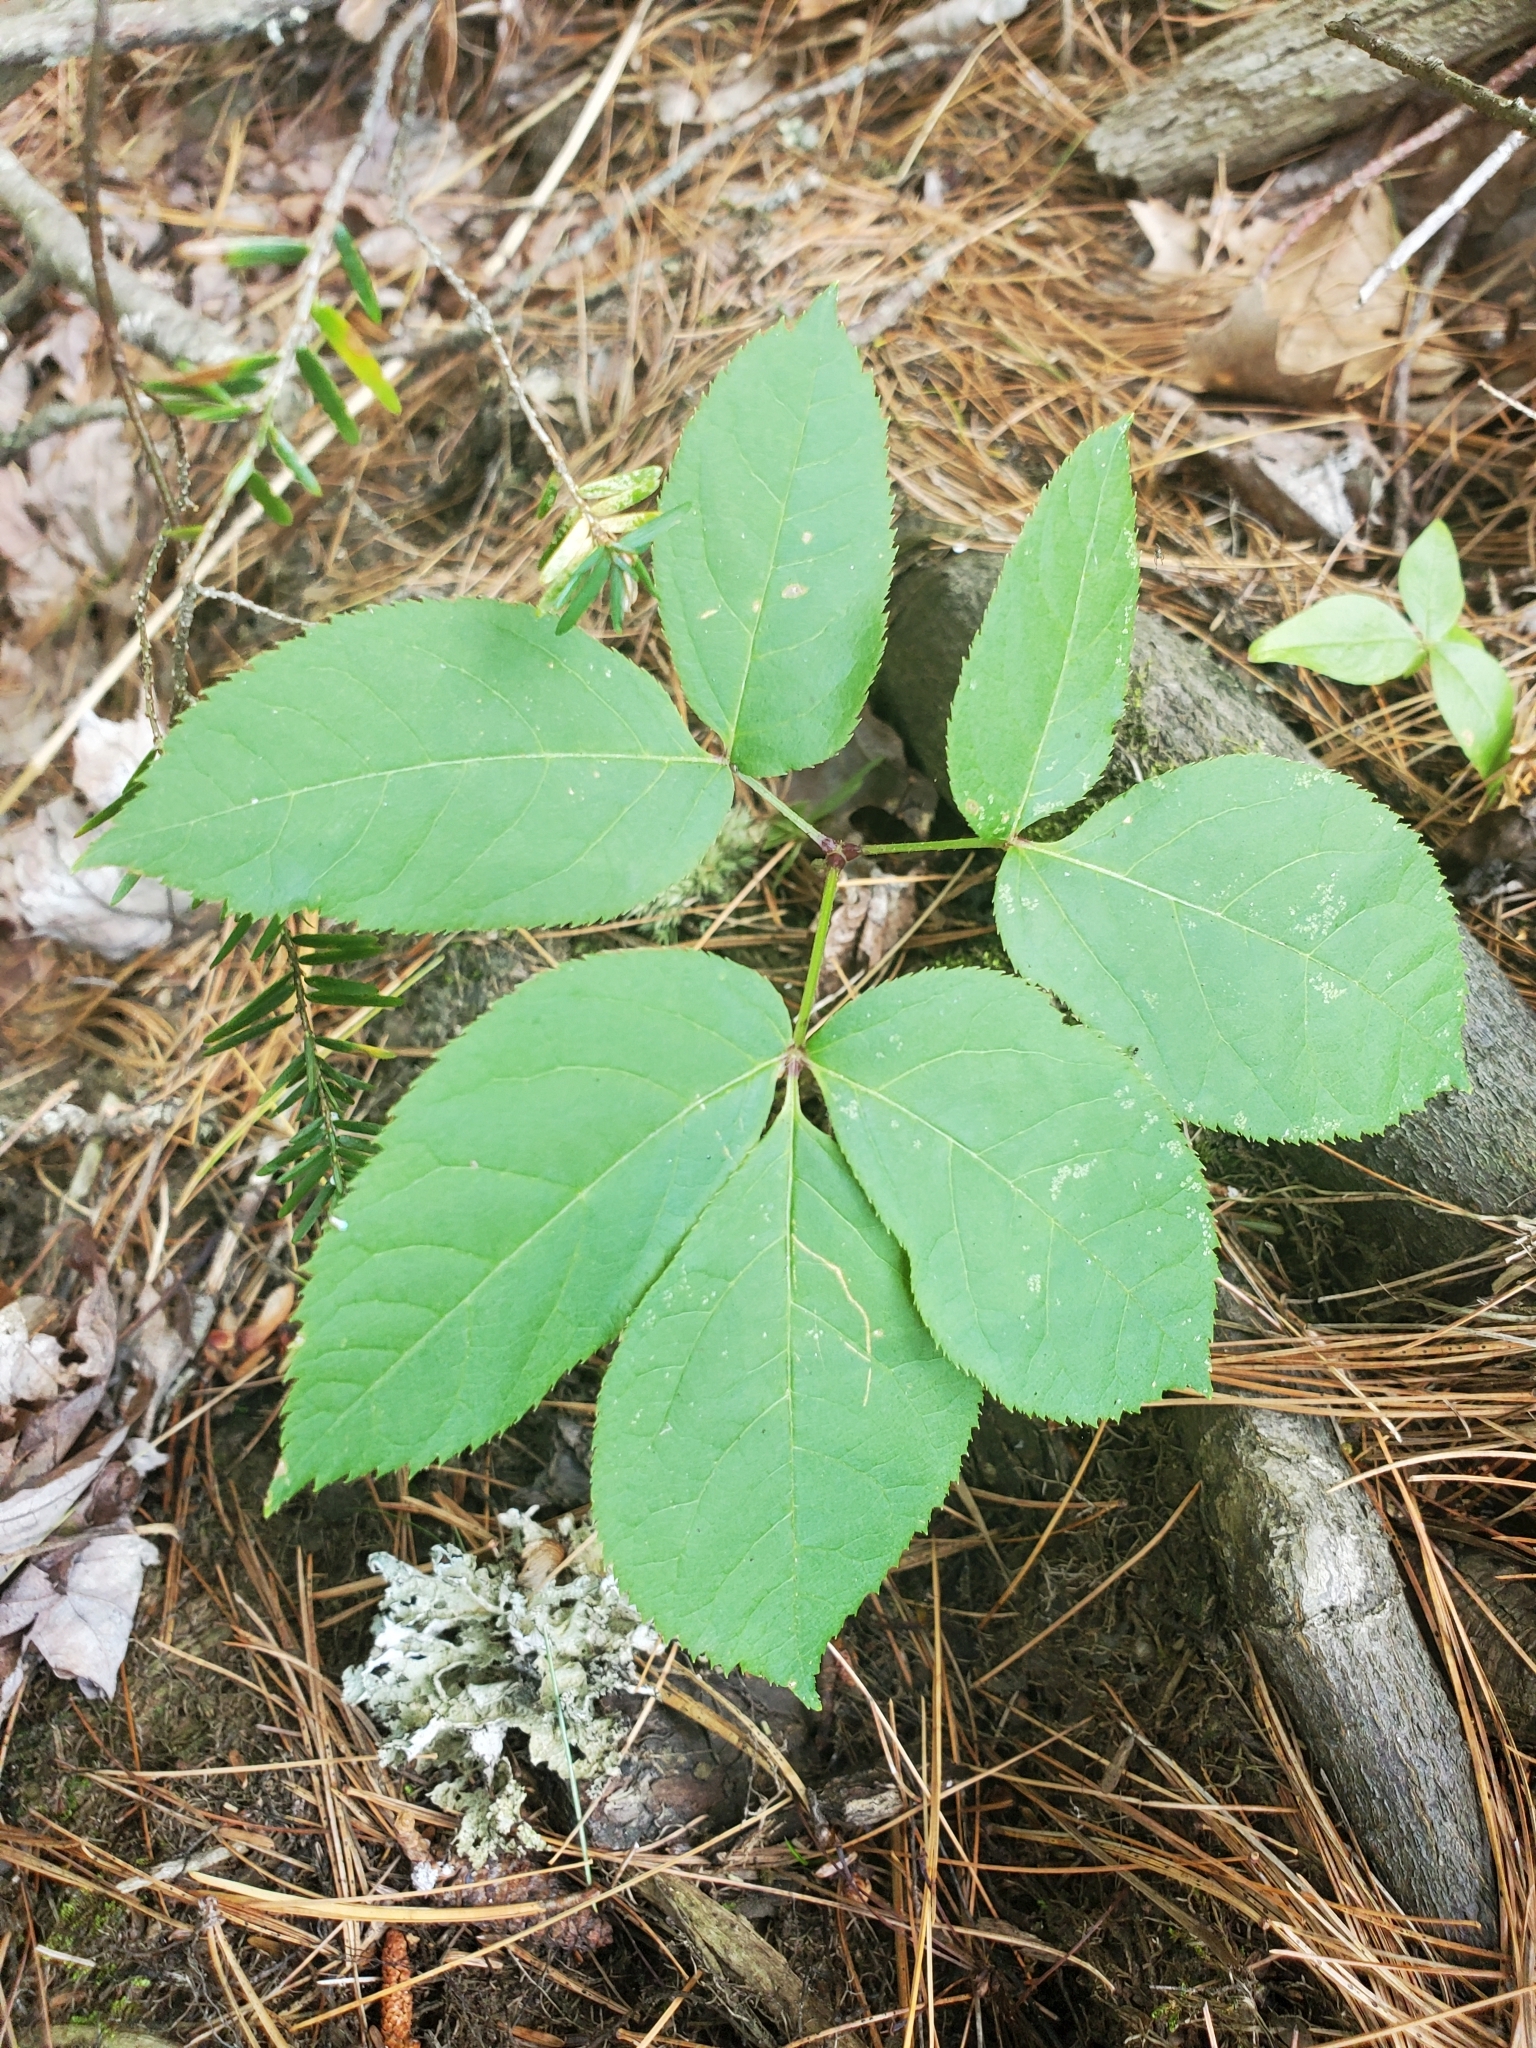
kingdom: Plantae
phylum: Tracheophyta
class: Magnoliopsida
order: Apiales
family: Araliaceae
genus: Aralia
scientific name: Aralia nudicaulis
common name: Wild sarsaparilla
